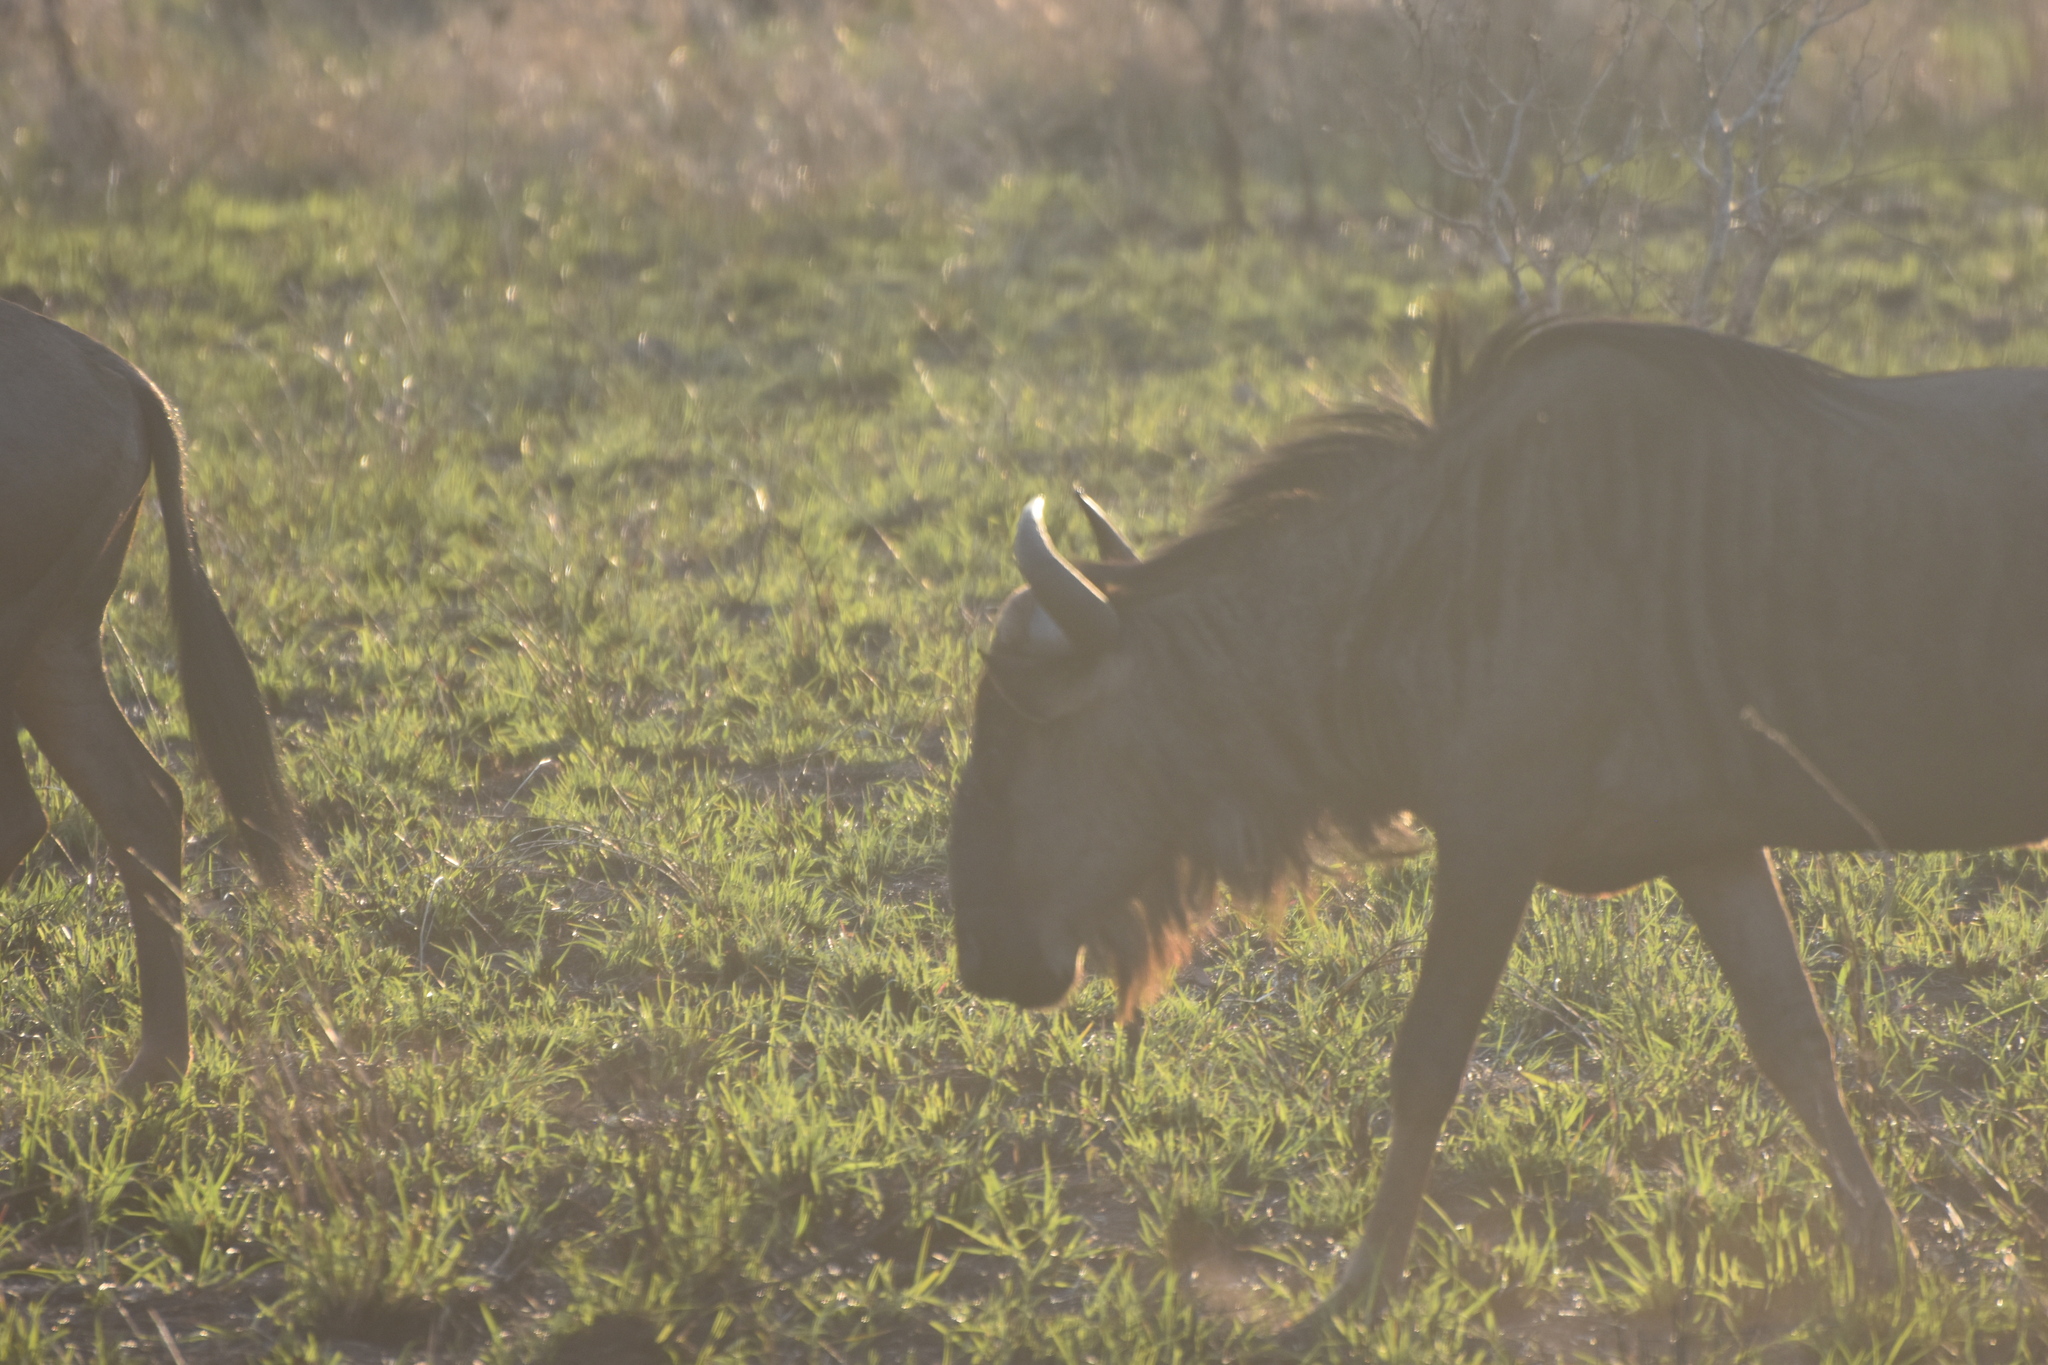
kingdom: Animalia
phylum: Chordata
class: Mammalia
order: Artiodactyla
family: Bovidae
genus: Connochaetes
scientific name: Connochaetes taurinus
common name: Blue wildebeest
